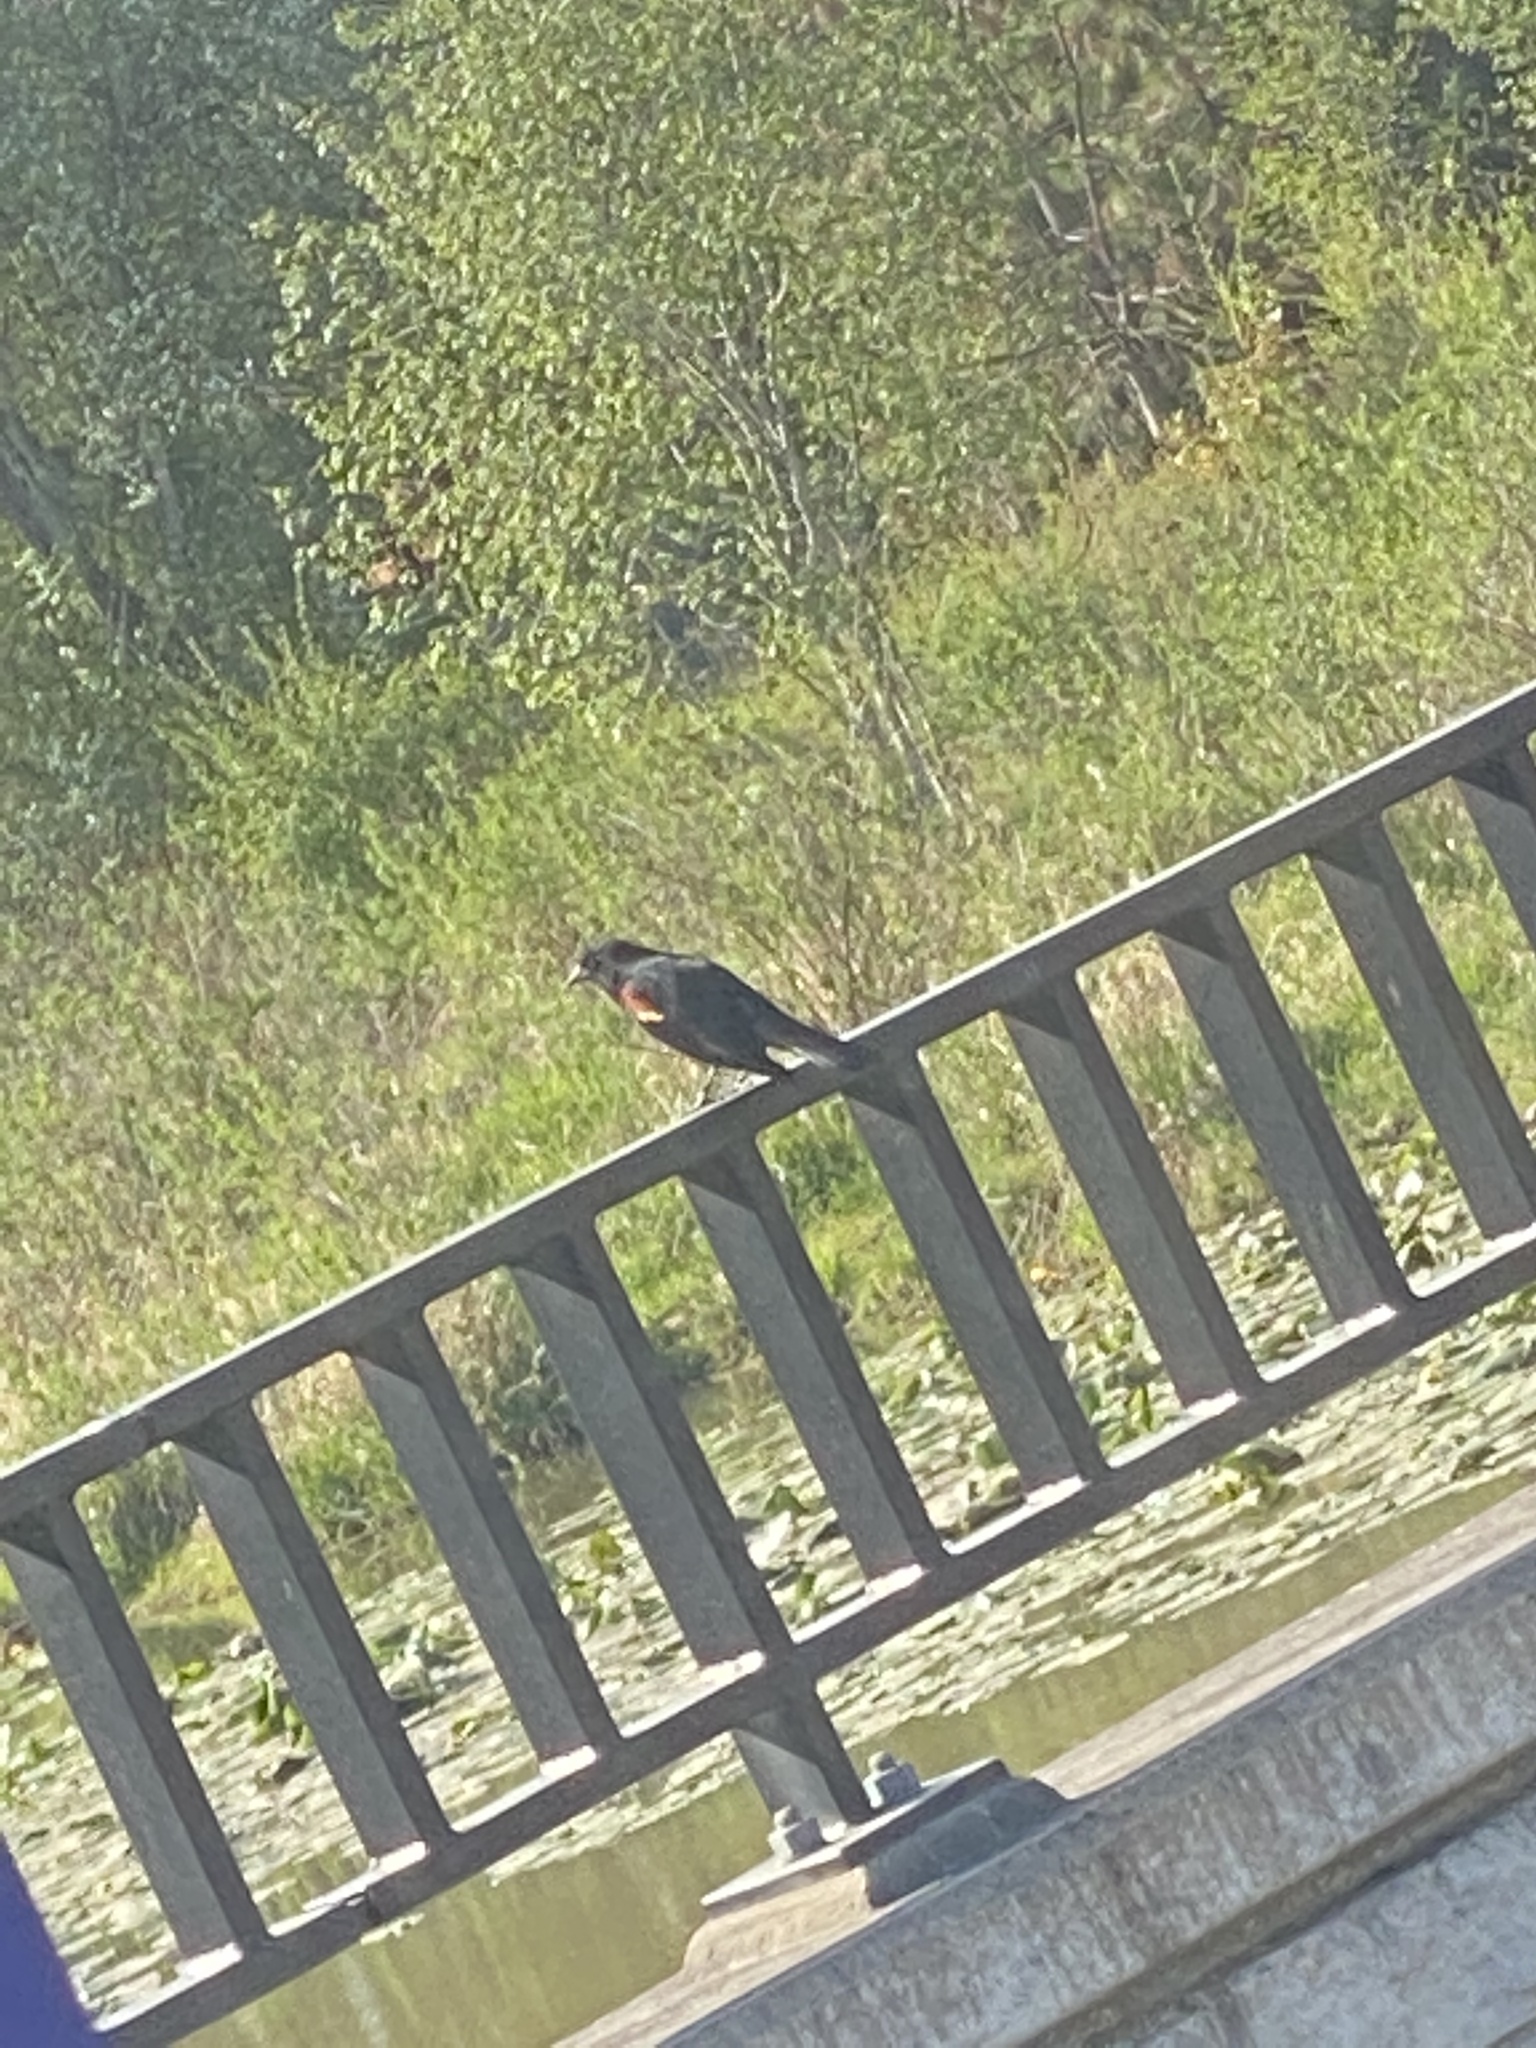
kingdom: Animalia
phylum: Chordata
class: Aves
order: Passeriformes
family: Icteridae
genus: Agelaius
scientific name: Agelaius phoeniceus
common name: Red-winged blackbird
